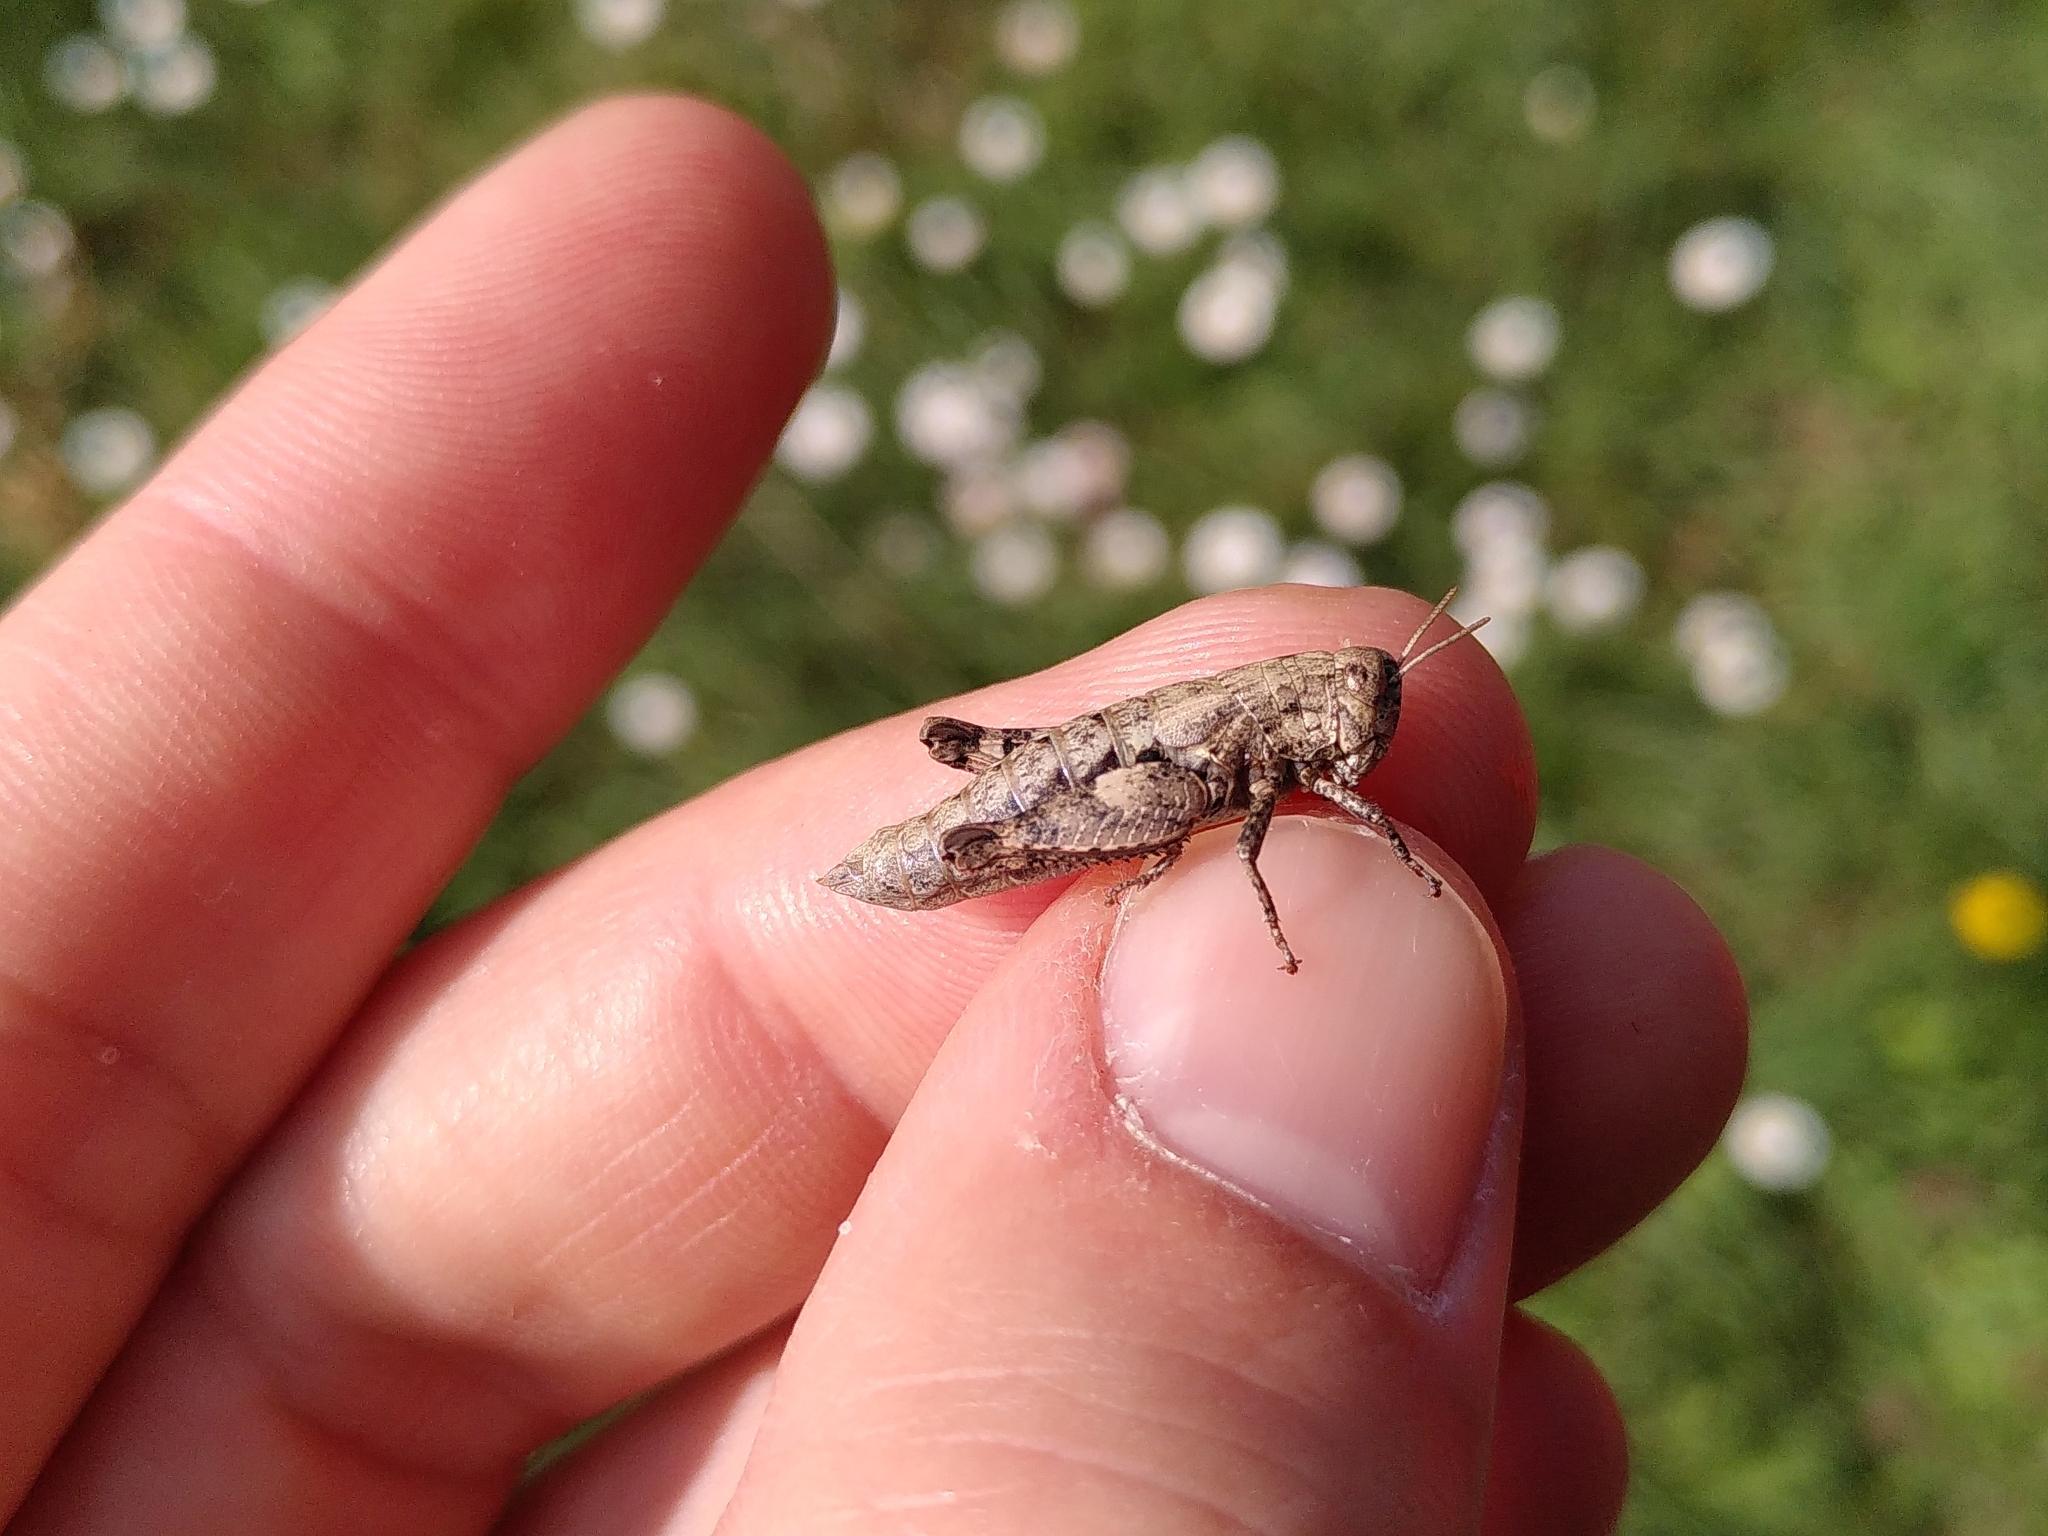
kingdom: Animalia
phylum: Arthropoda
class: Insecta
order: Orthoptera
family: Acrididae
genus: Pezotettix
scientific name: Pezotettix giornae
